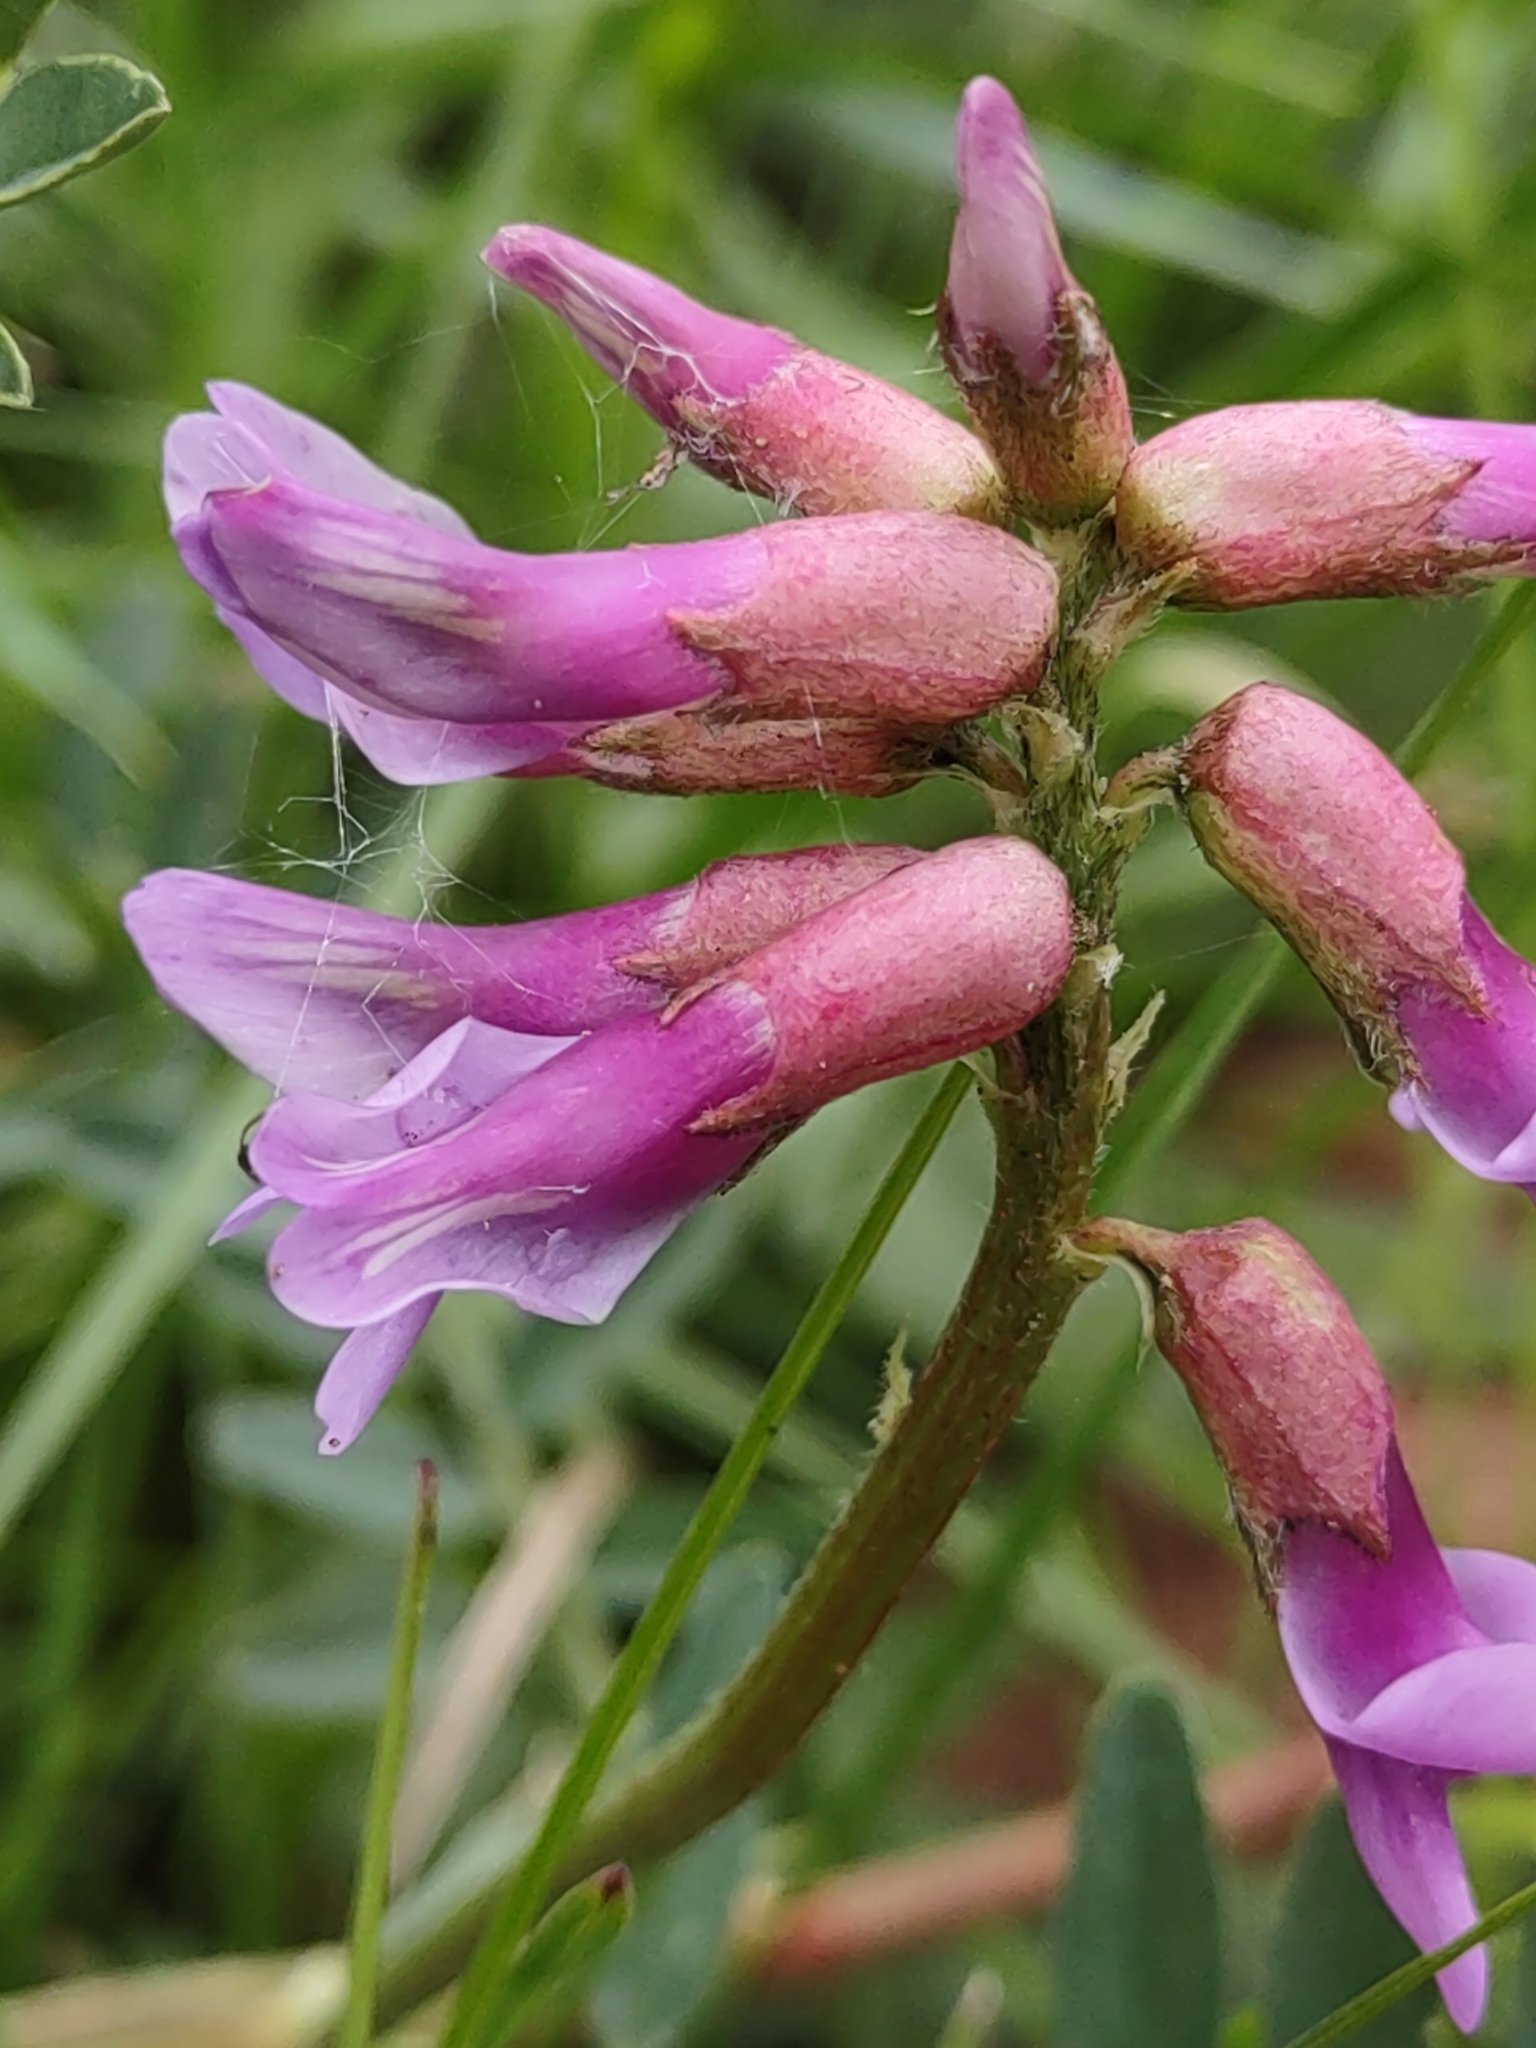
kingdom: Plantae
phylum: Tracheophyta
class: Magnoliopsida
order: Fabales
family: Fabaceae
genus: Astragalus
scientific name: Astragalus hallii
